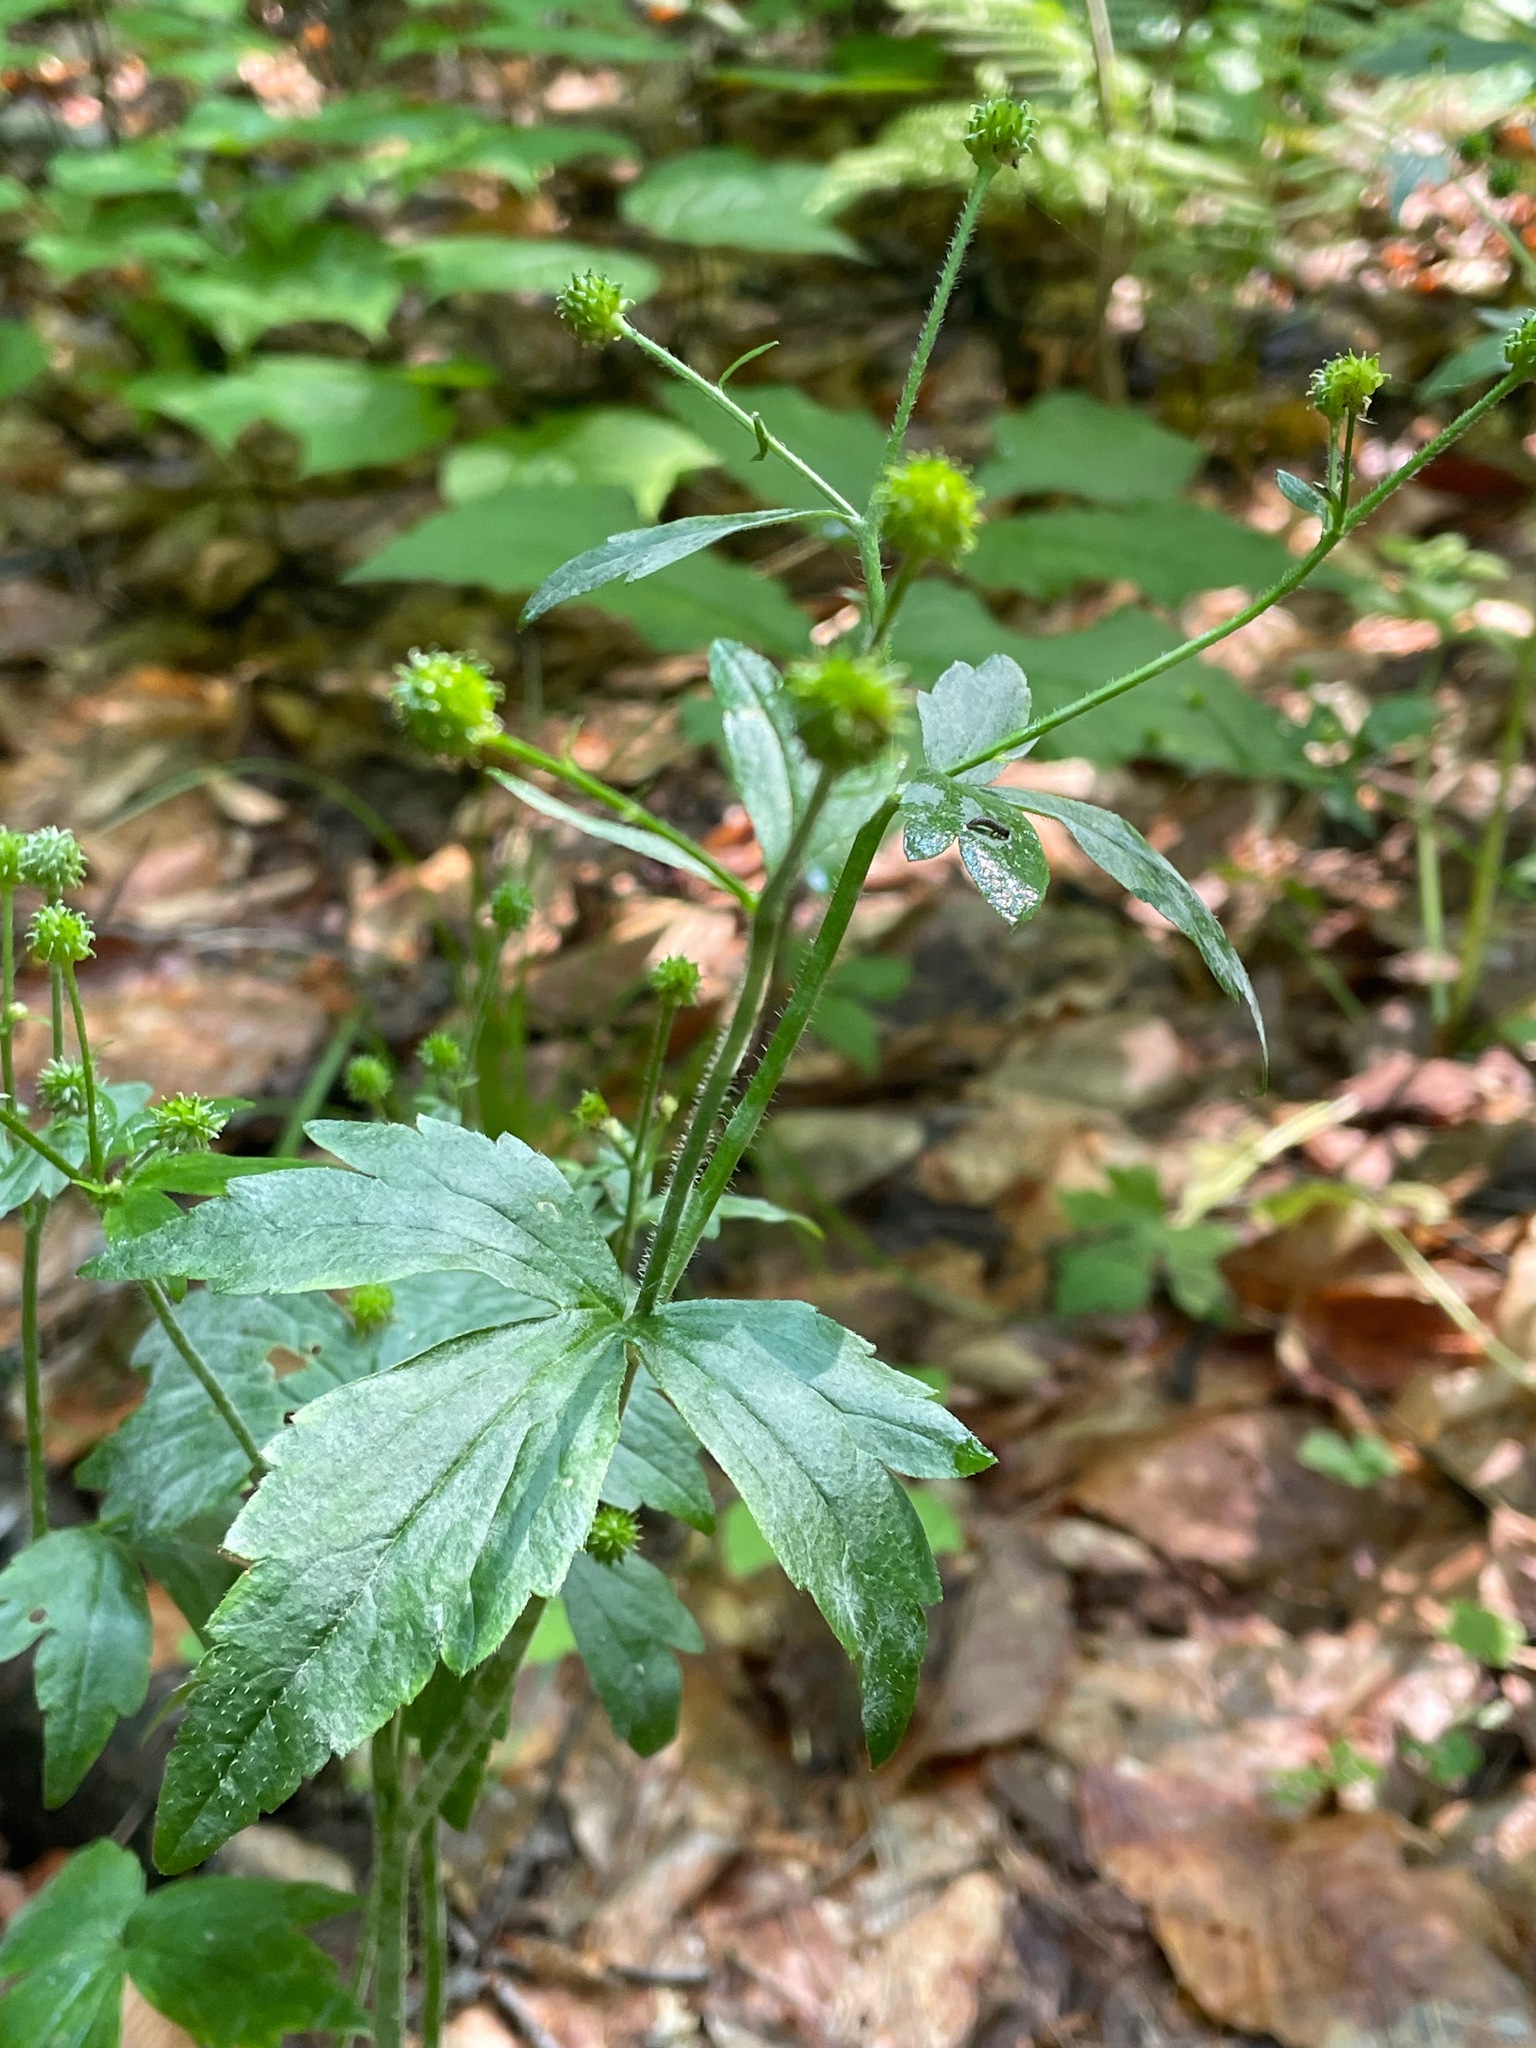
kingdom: Plantae
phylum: Tracheophyta
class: Magnoliopsida
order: Ranunculales
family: Ranunculaceae
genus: Ranunculus
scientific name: Ranunculus recurvatus
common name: Blisterwort
